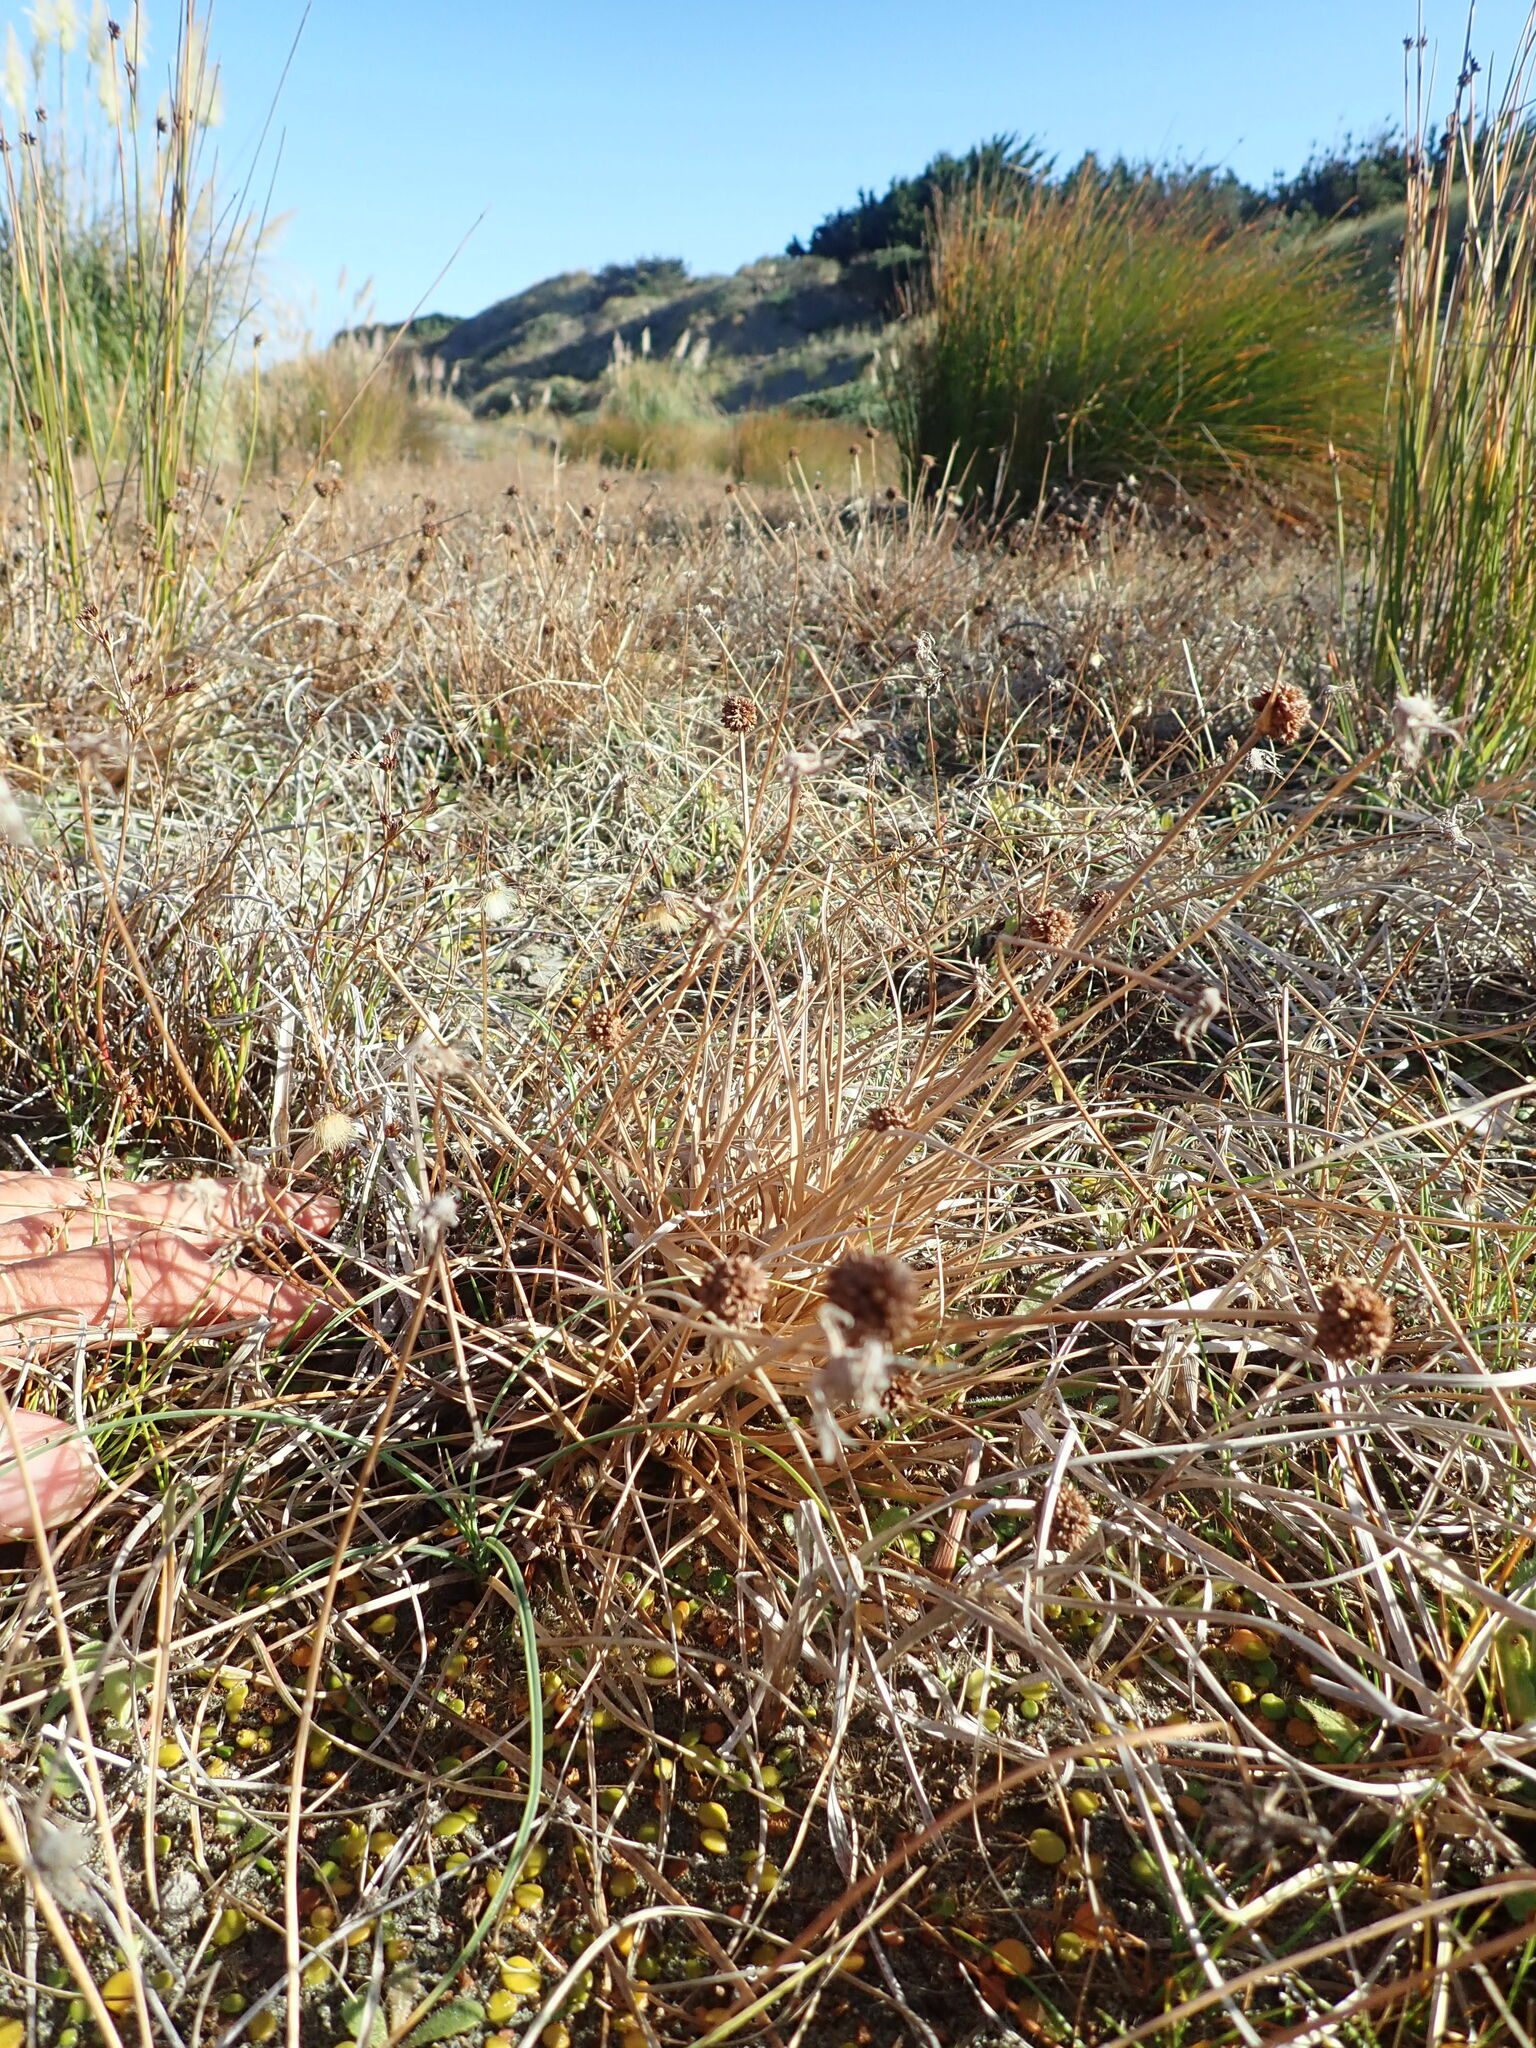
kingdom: Plantae
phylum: Tracheophyta
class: Liliopsida
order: Poales
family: Juncaceae
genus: Juncus
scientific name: Juncus caespiticius
